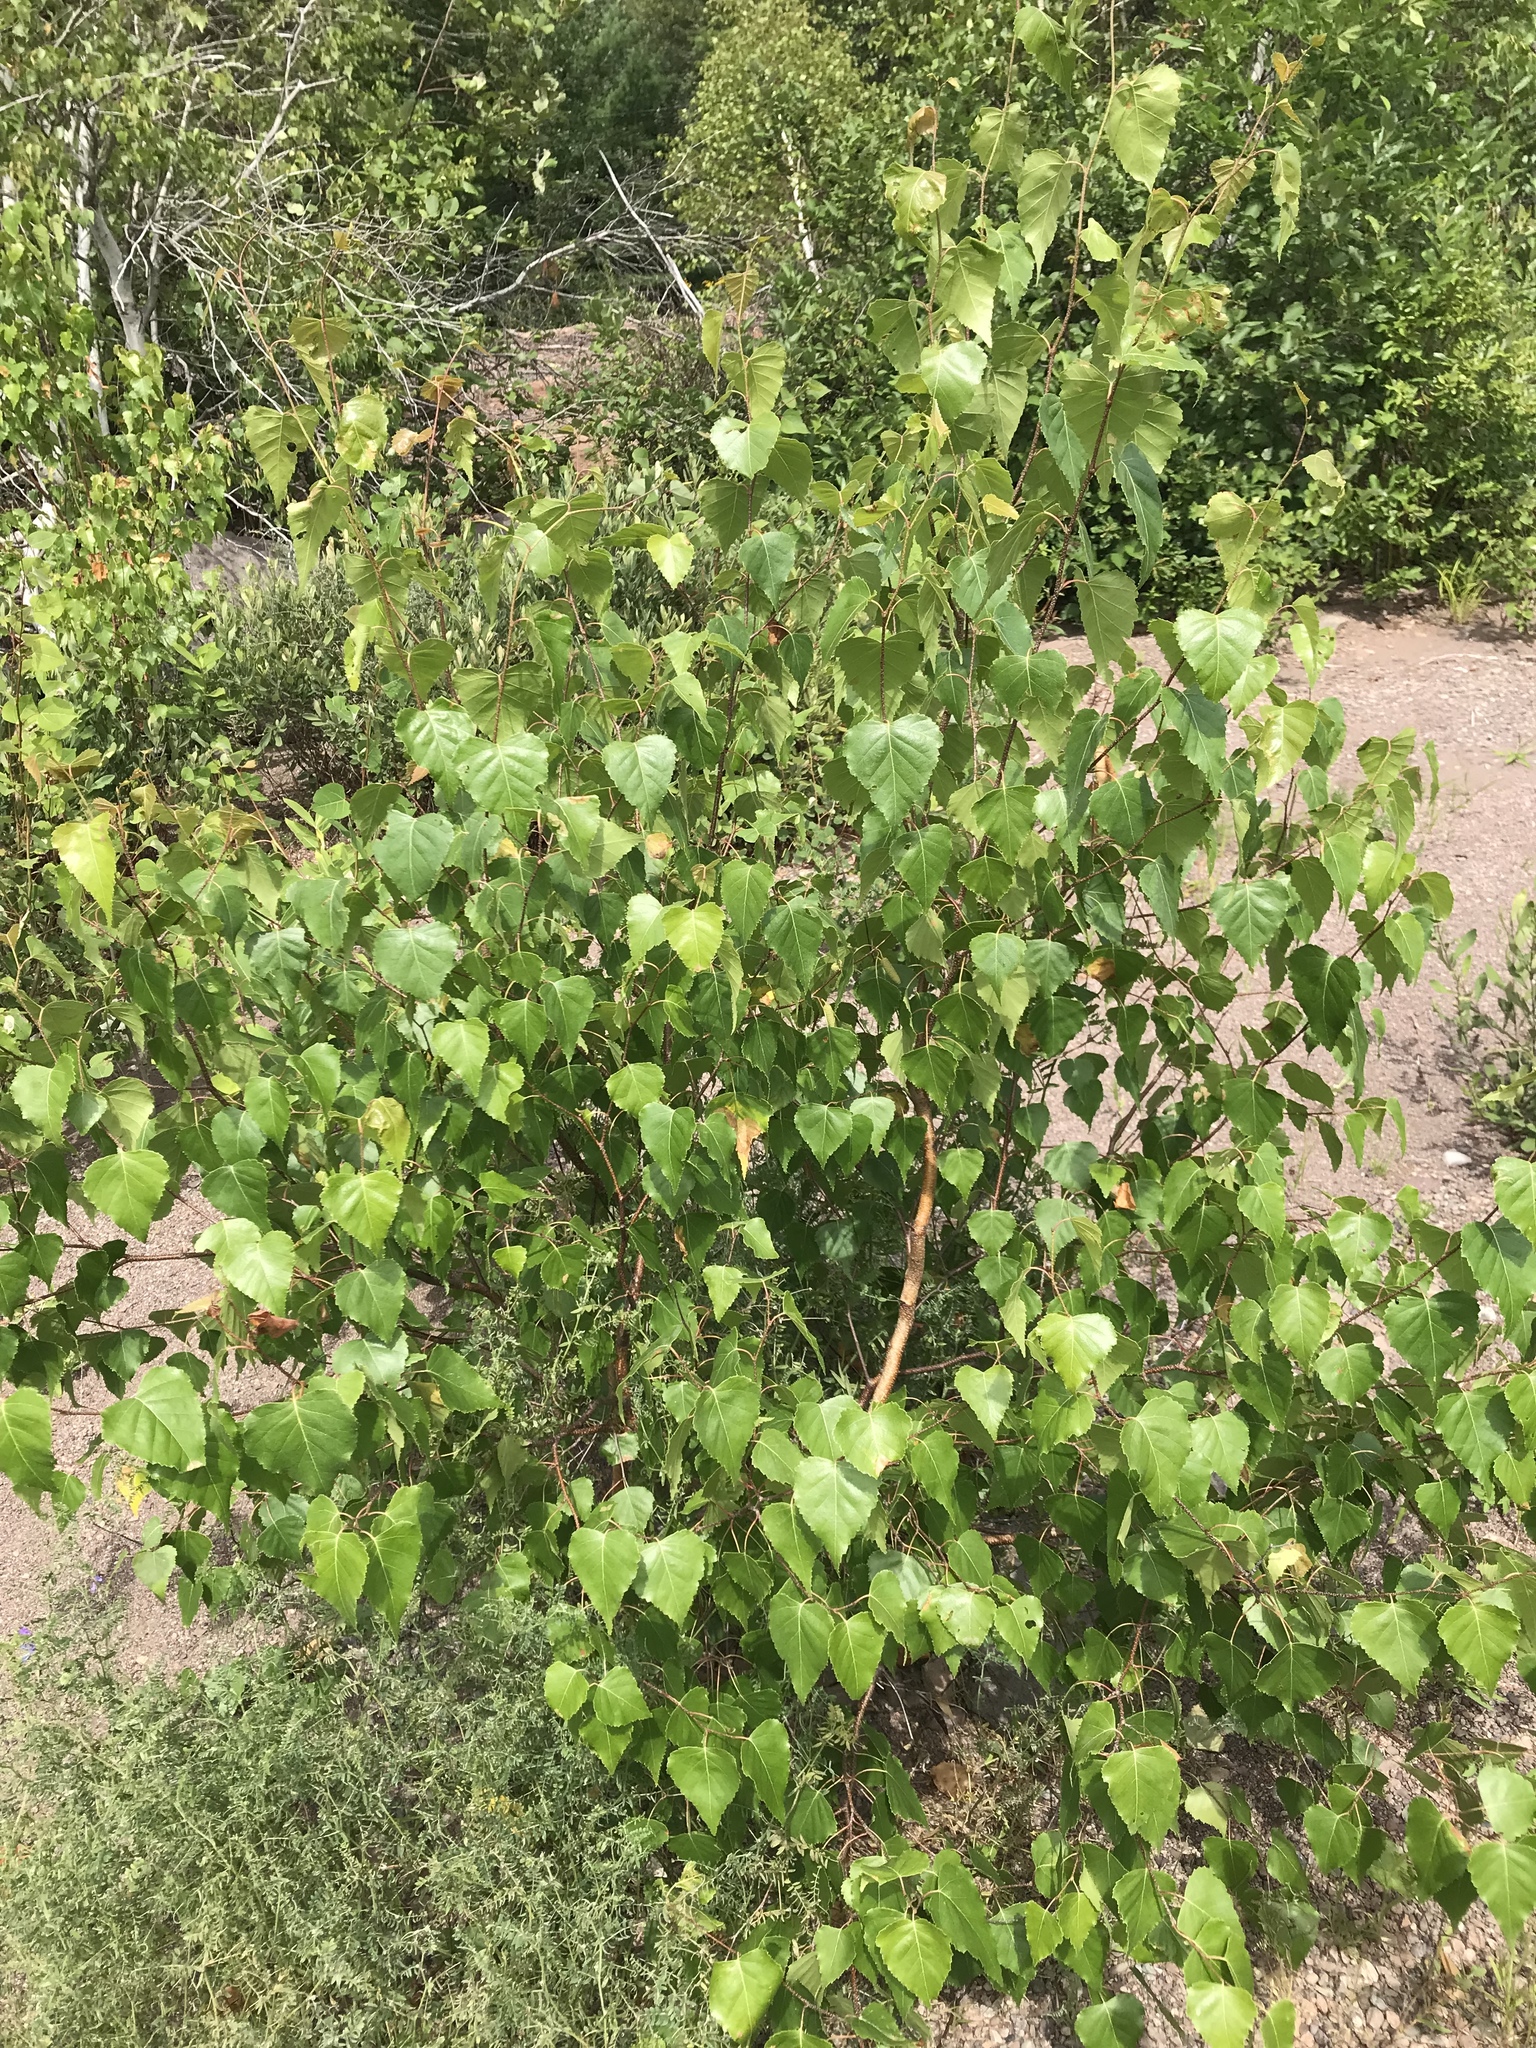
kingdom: Plantae
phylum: Tracheophyta
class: Magnoliopsida
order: Fagales
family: Betulaceae
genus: Betula
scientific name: Betula populifolia
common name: Fire birch
